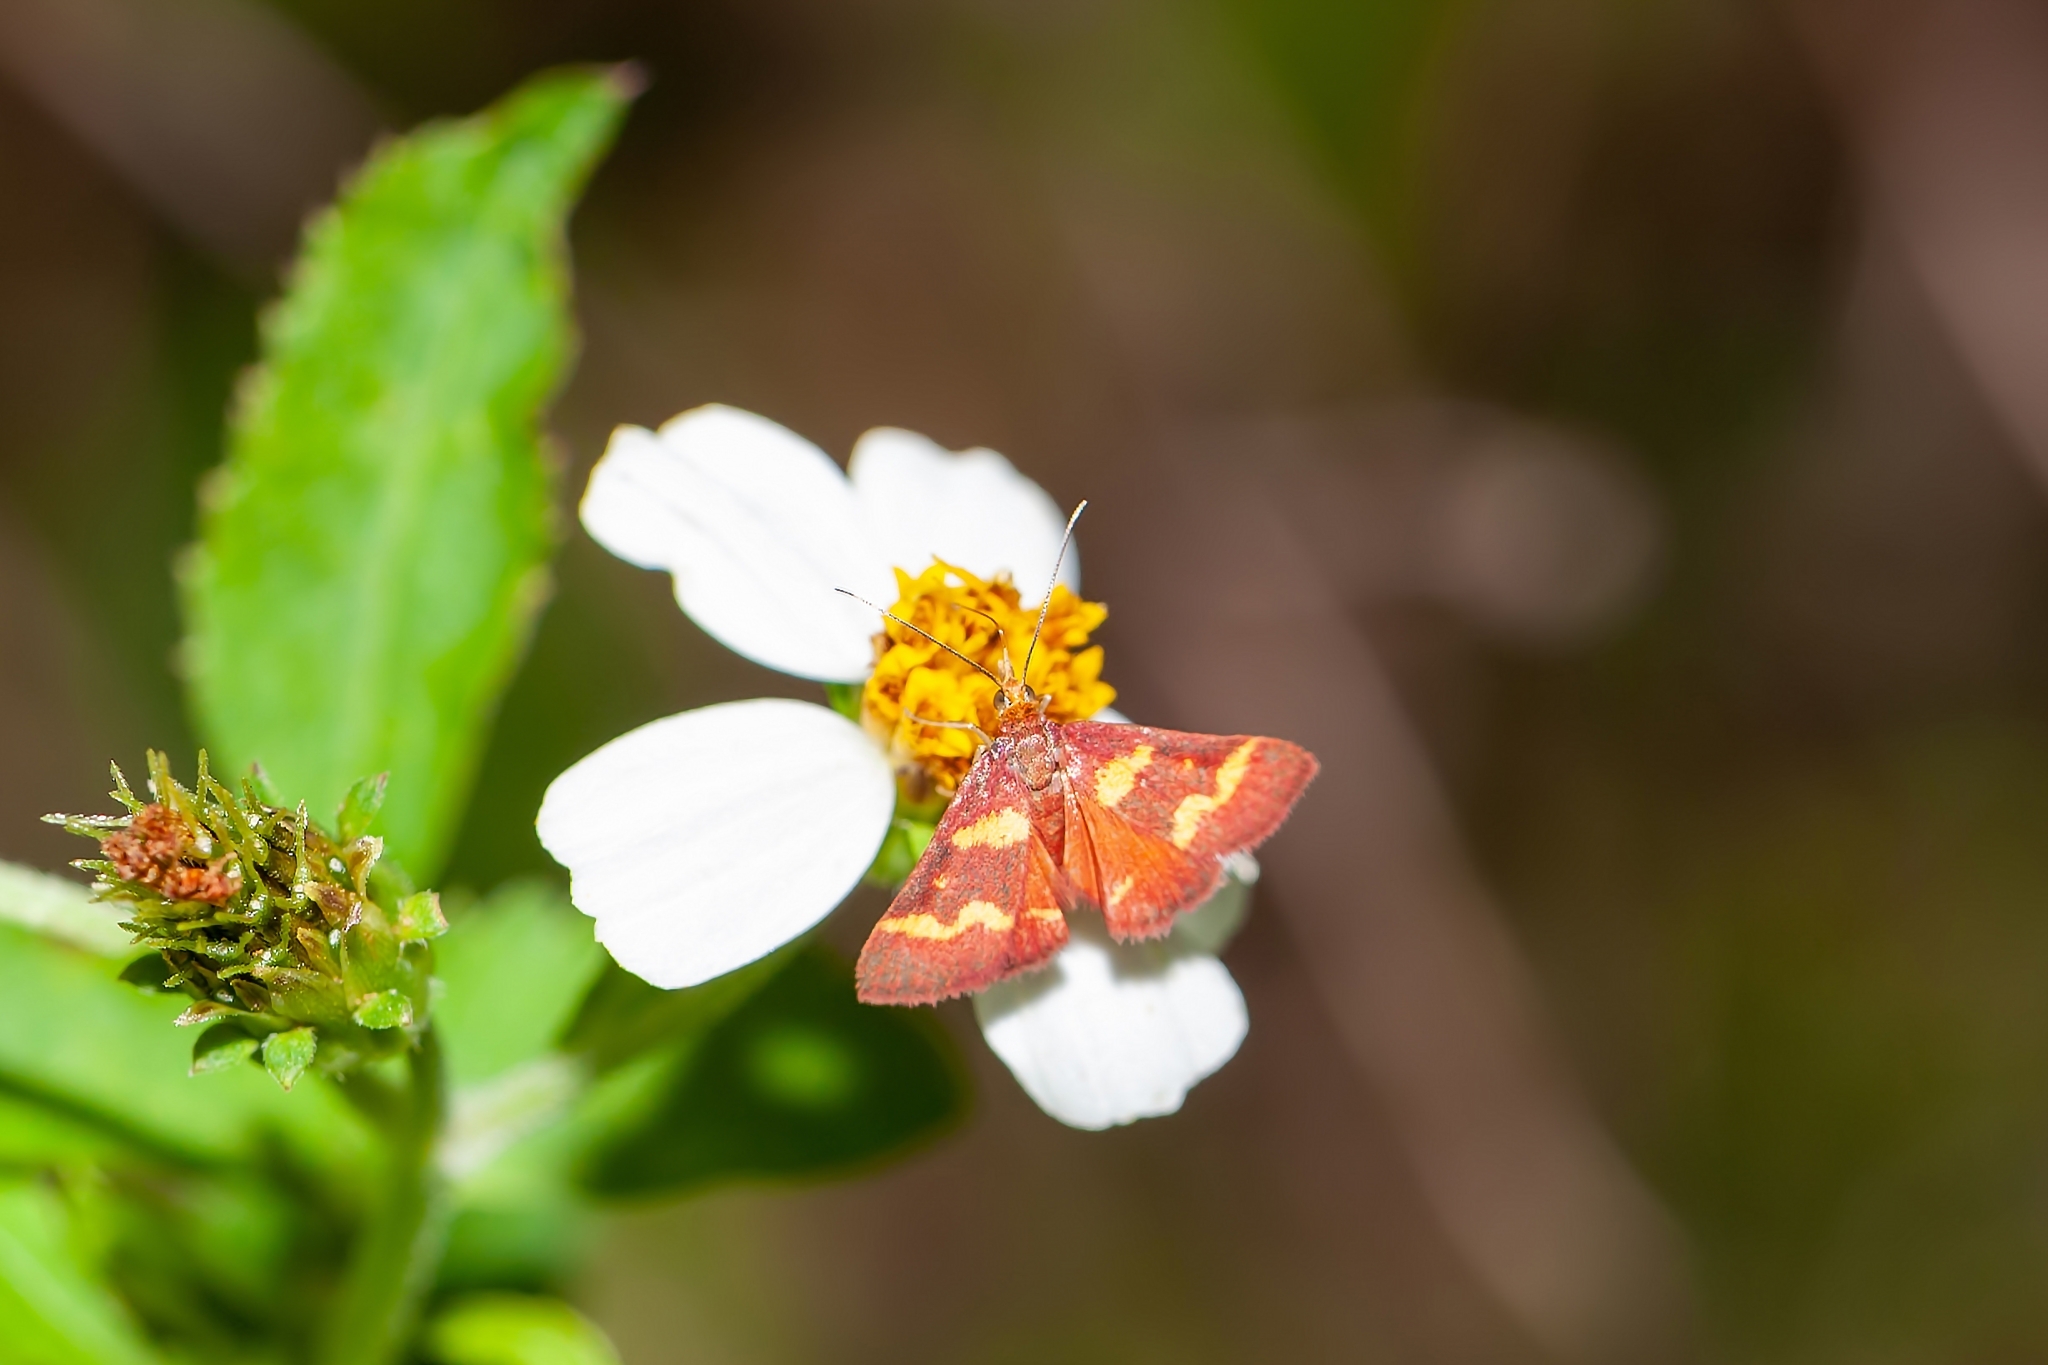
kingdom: Animalia
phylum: Arthropoda
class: Insecta
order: Lepidoptera
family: Crambidae
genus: Pyrausta
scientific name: Pyrausta tyralis
